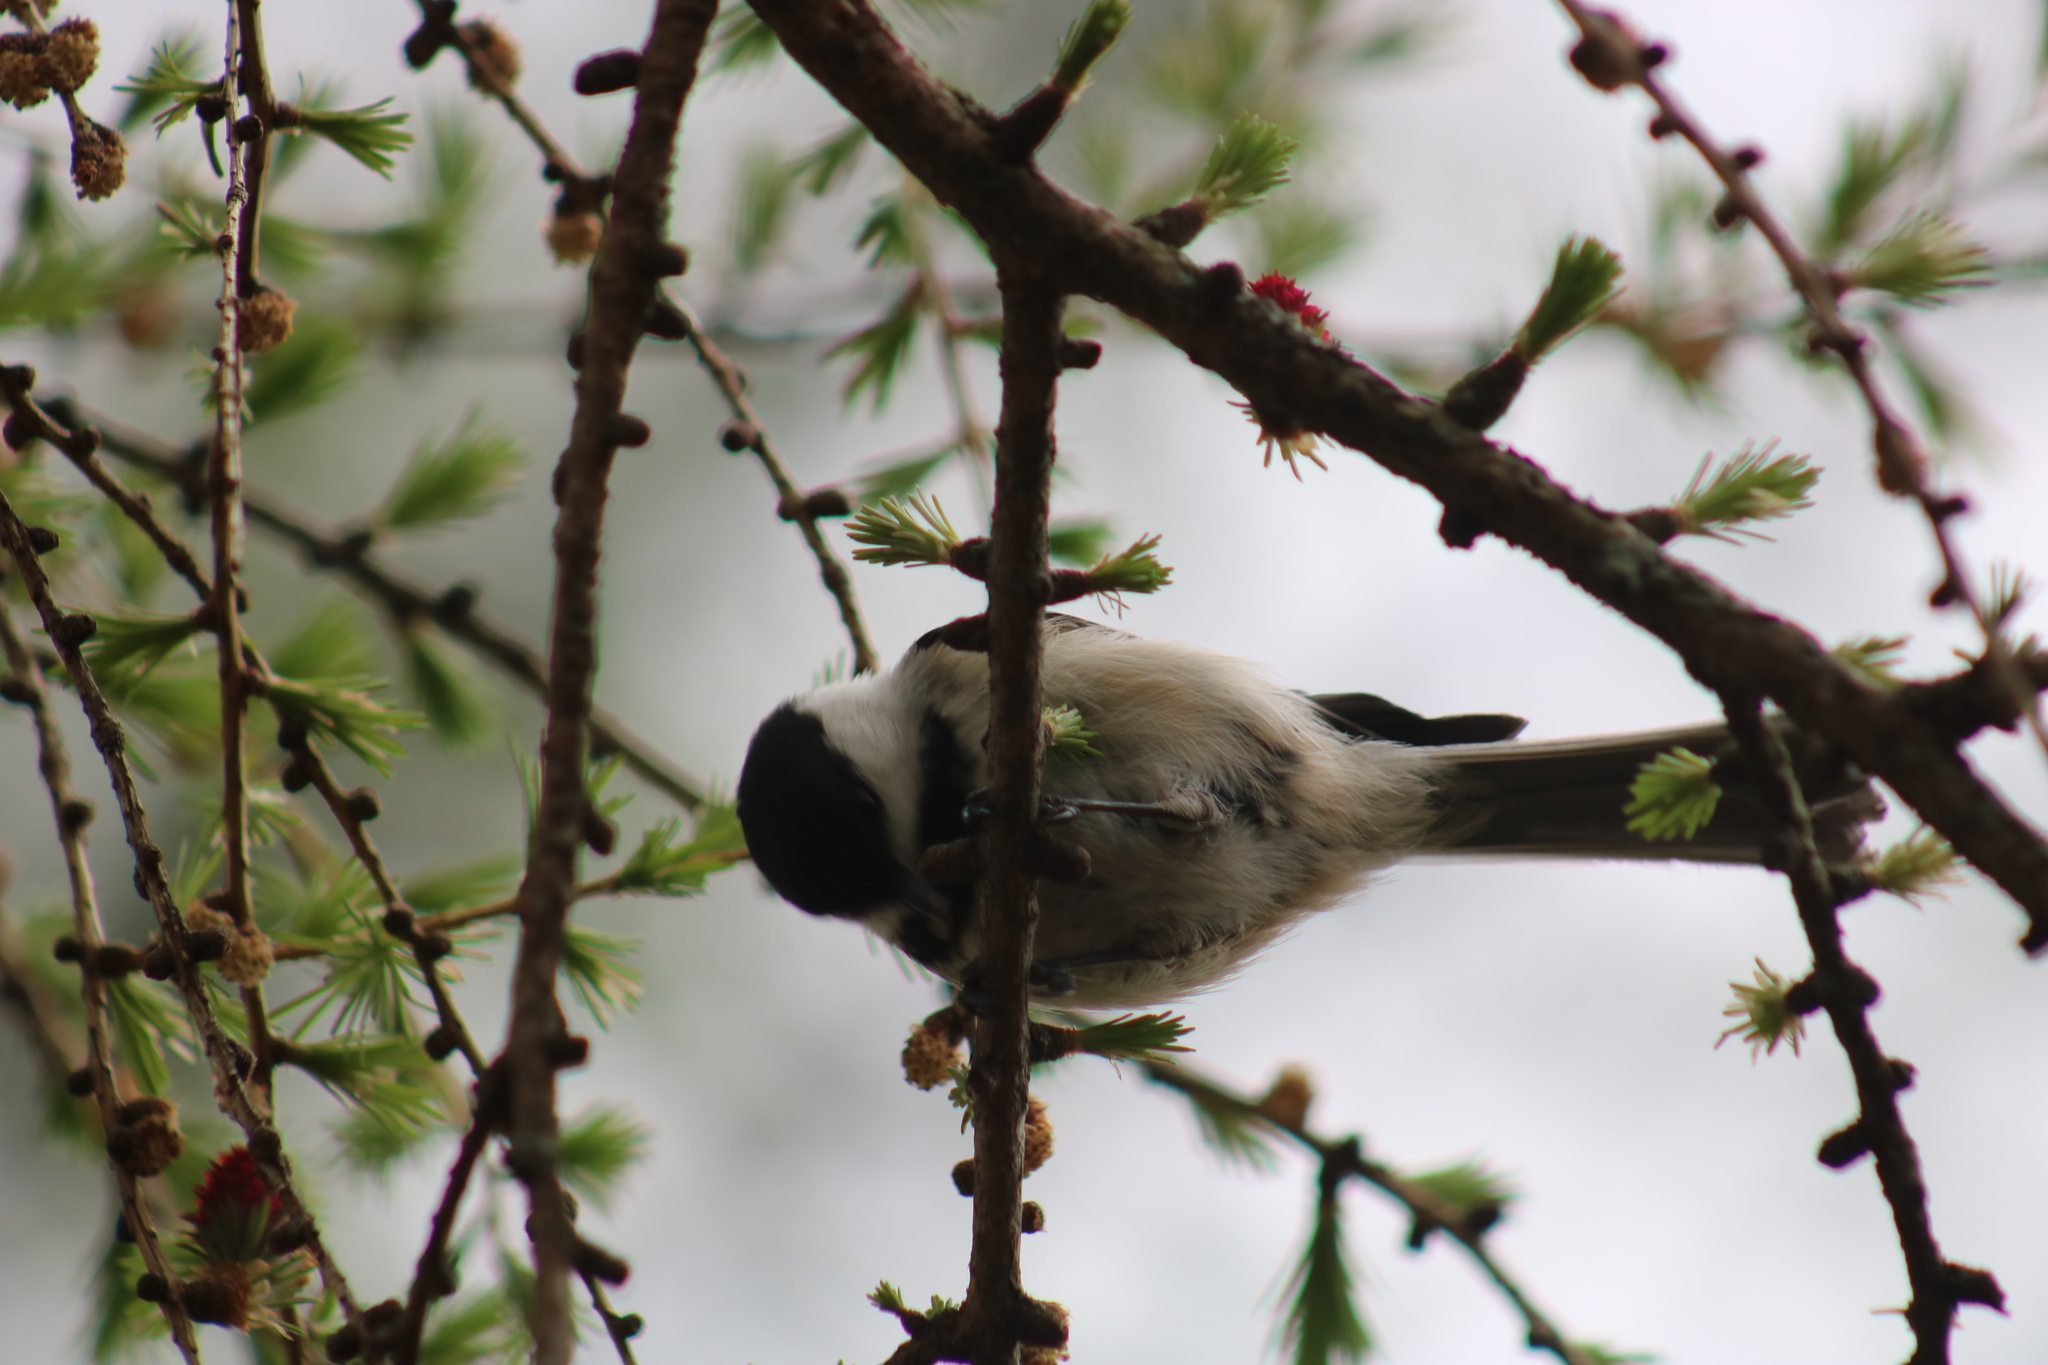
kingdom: Animalia
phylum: Chordata
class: Aves
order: Passeriformes
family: Paridae
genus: Poecile
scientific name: Poecile atricapillus
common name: Black-capped chickadee
